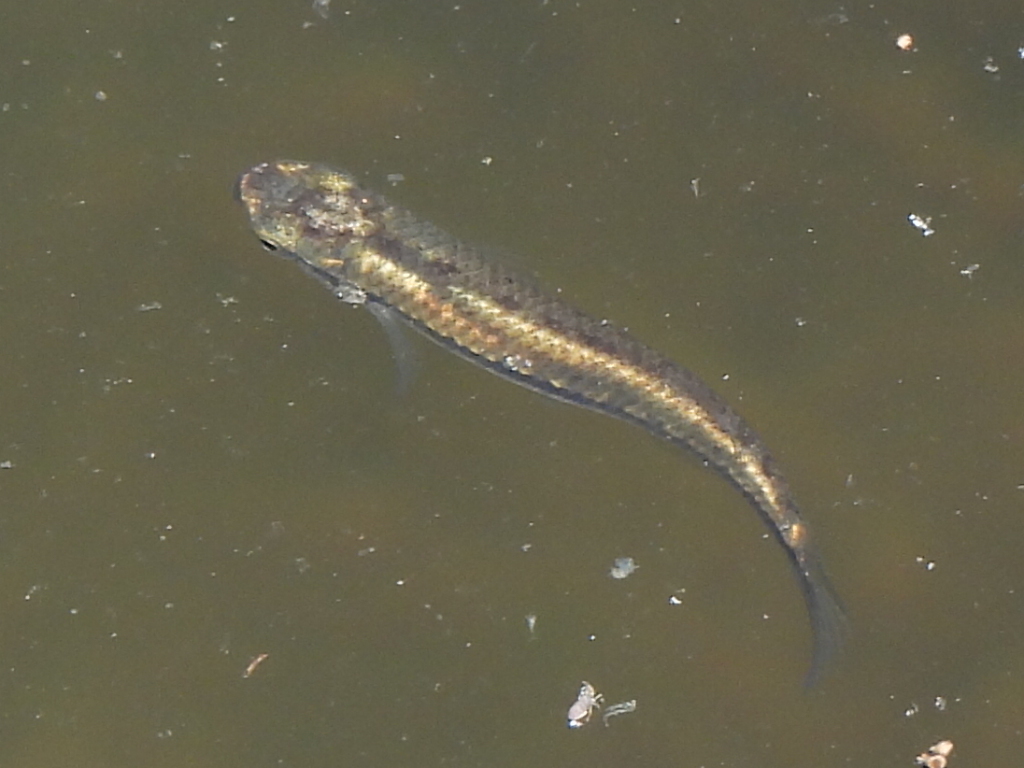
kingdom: Animalia
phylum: Chordata
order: Cyprinodontiformes
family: Fundulidae
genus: Fundulus
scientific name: Fundulus notatus
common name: Blackstripe topminnow
